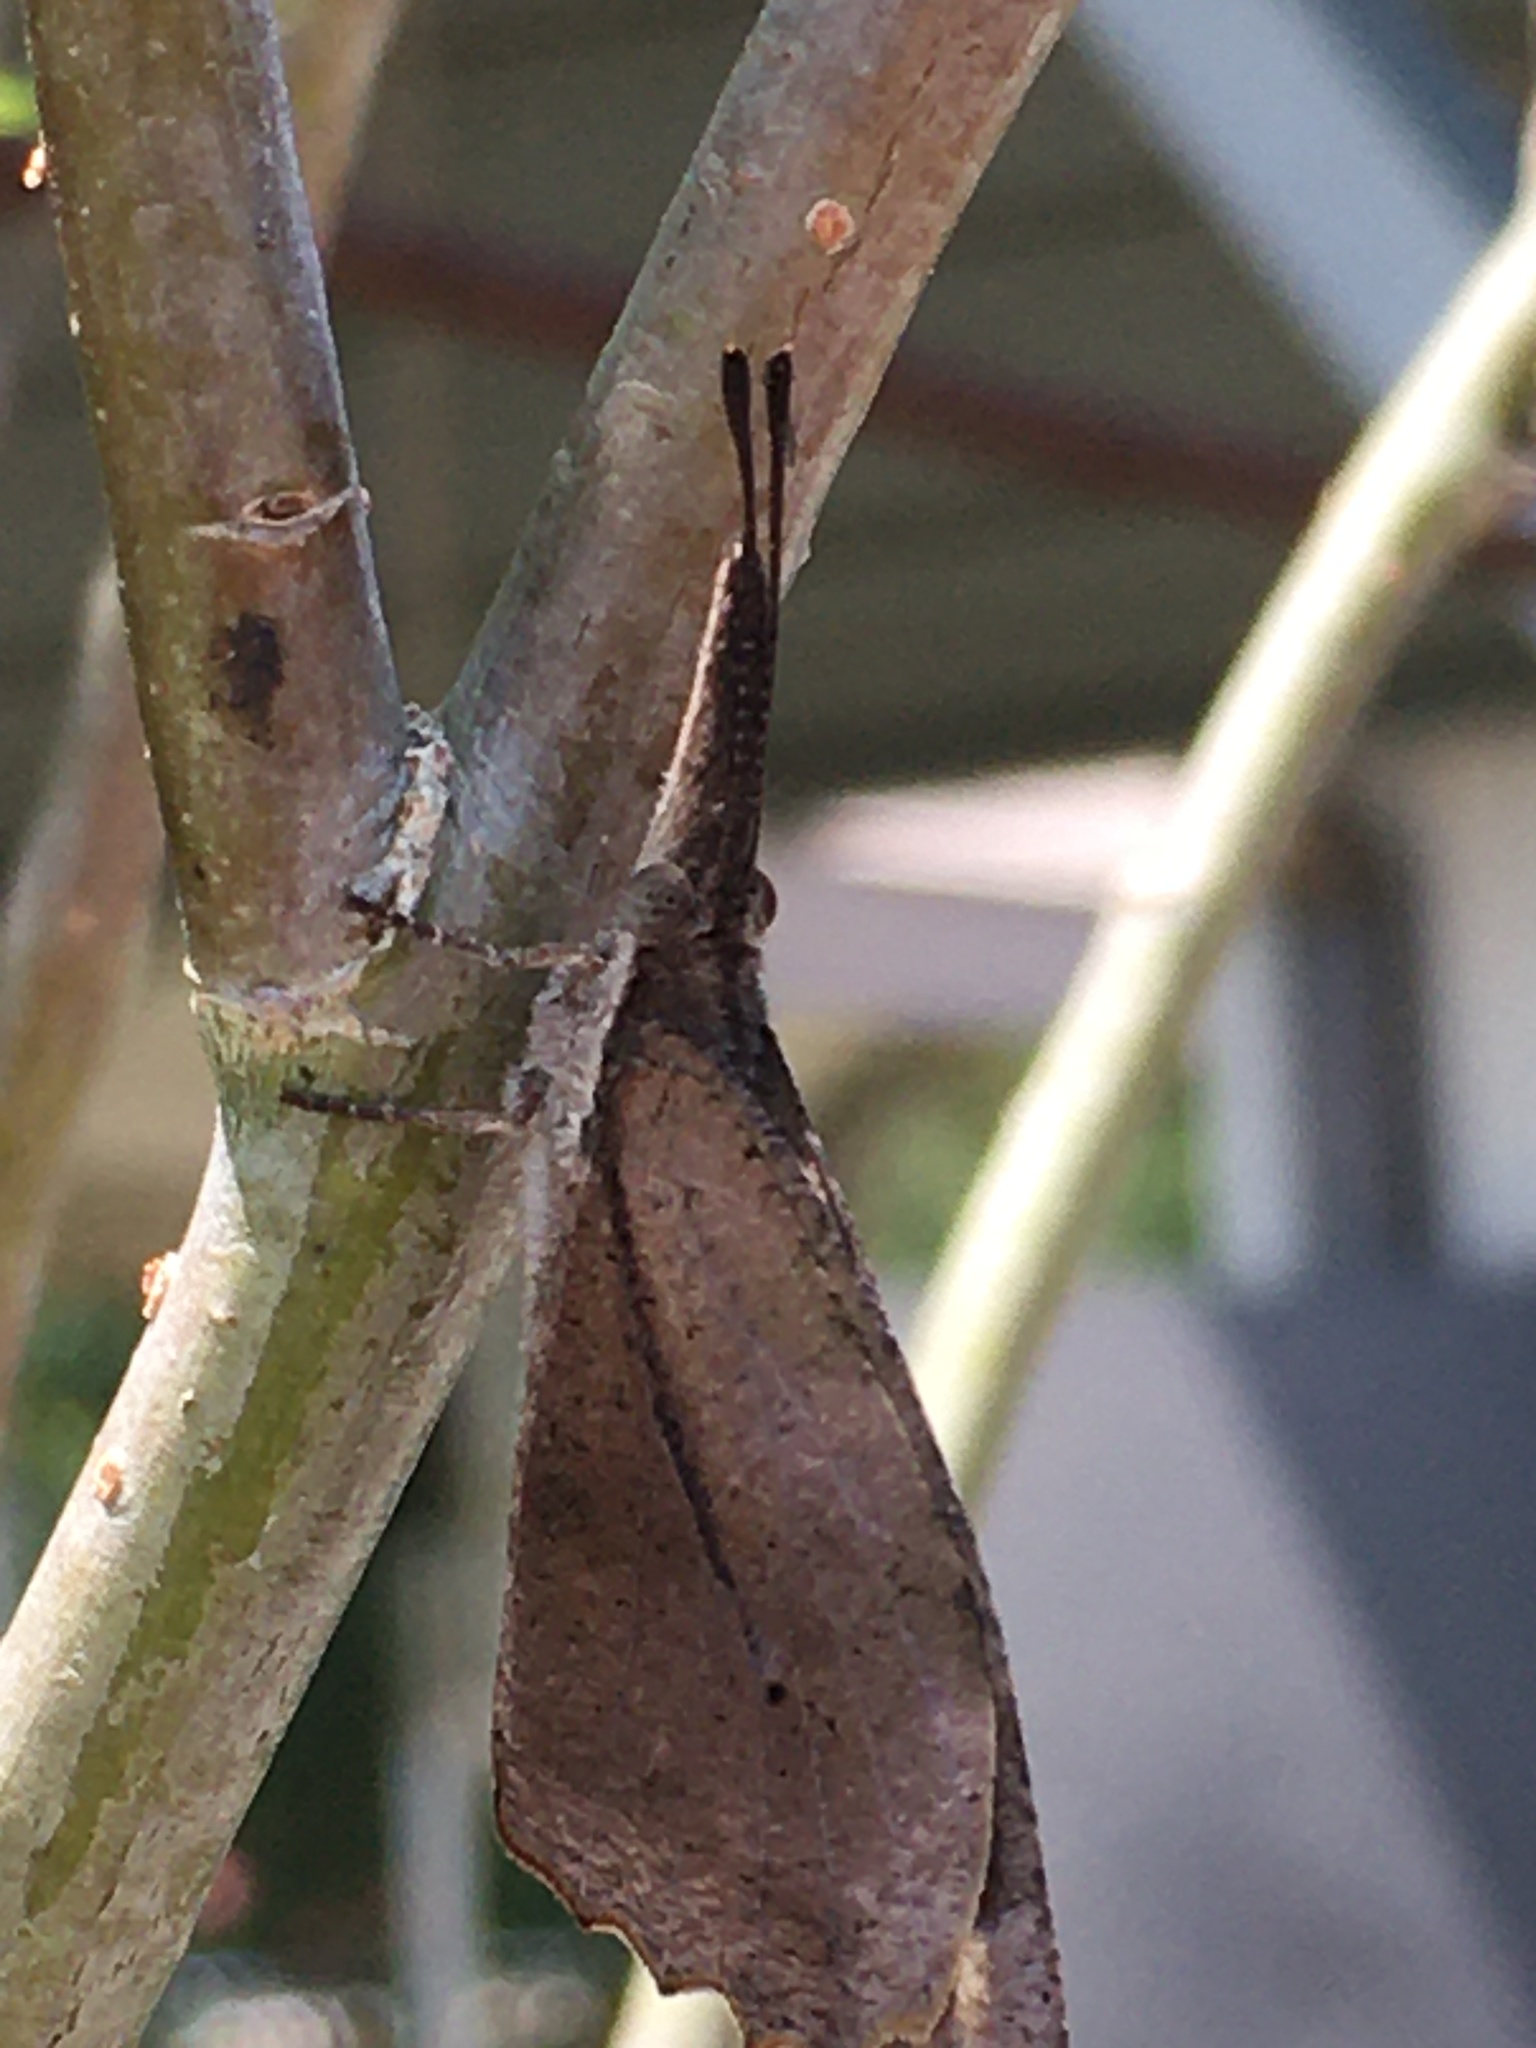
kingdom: Animalia
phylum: Arthropoda
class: Insecta
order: Lepidoptera
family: Nymphalidae
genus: Libytheana
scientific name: Libytheana carinenta
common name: American snout
